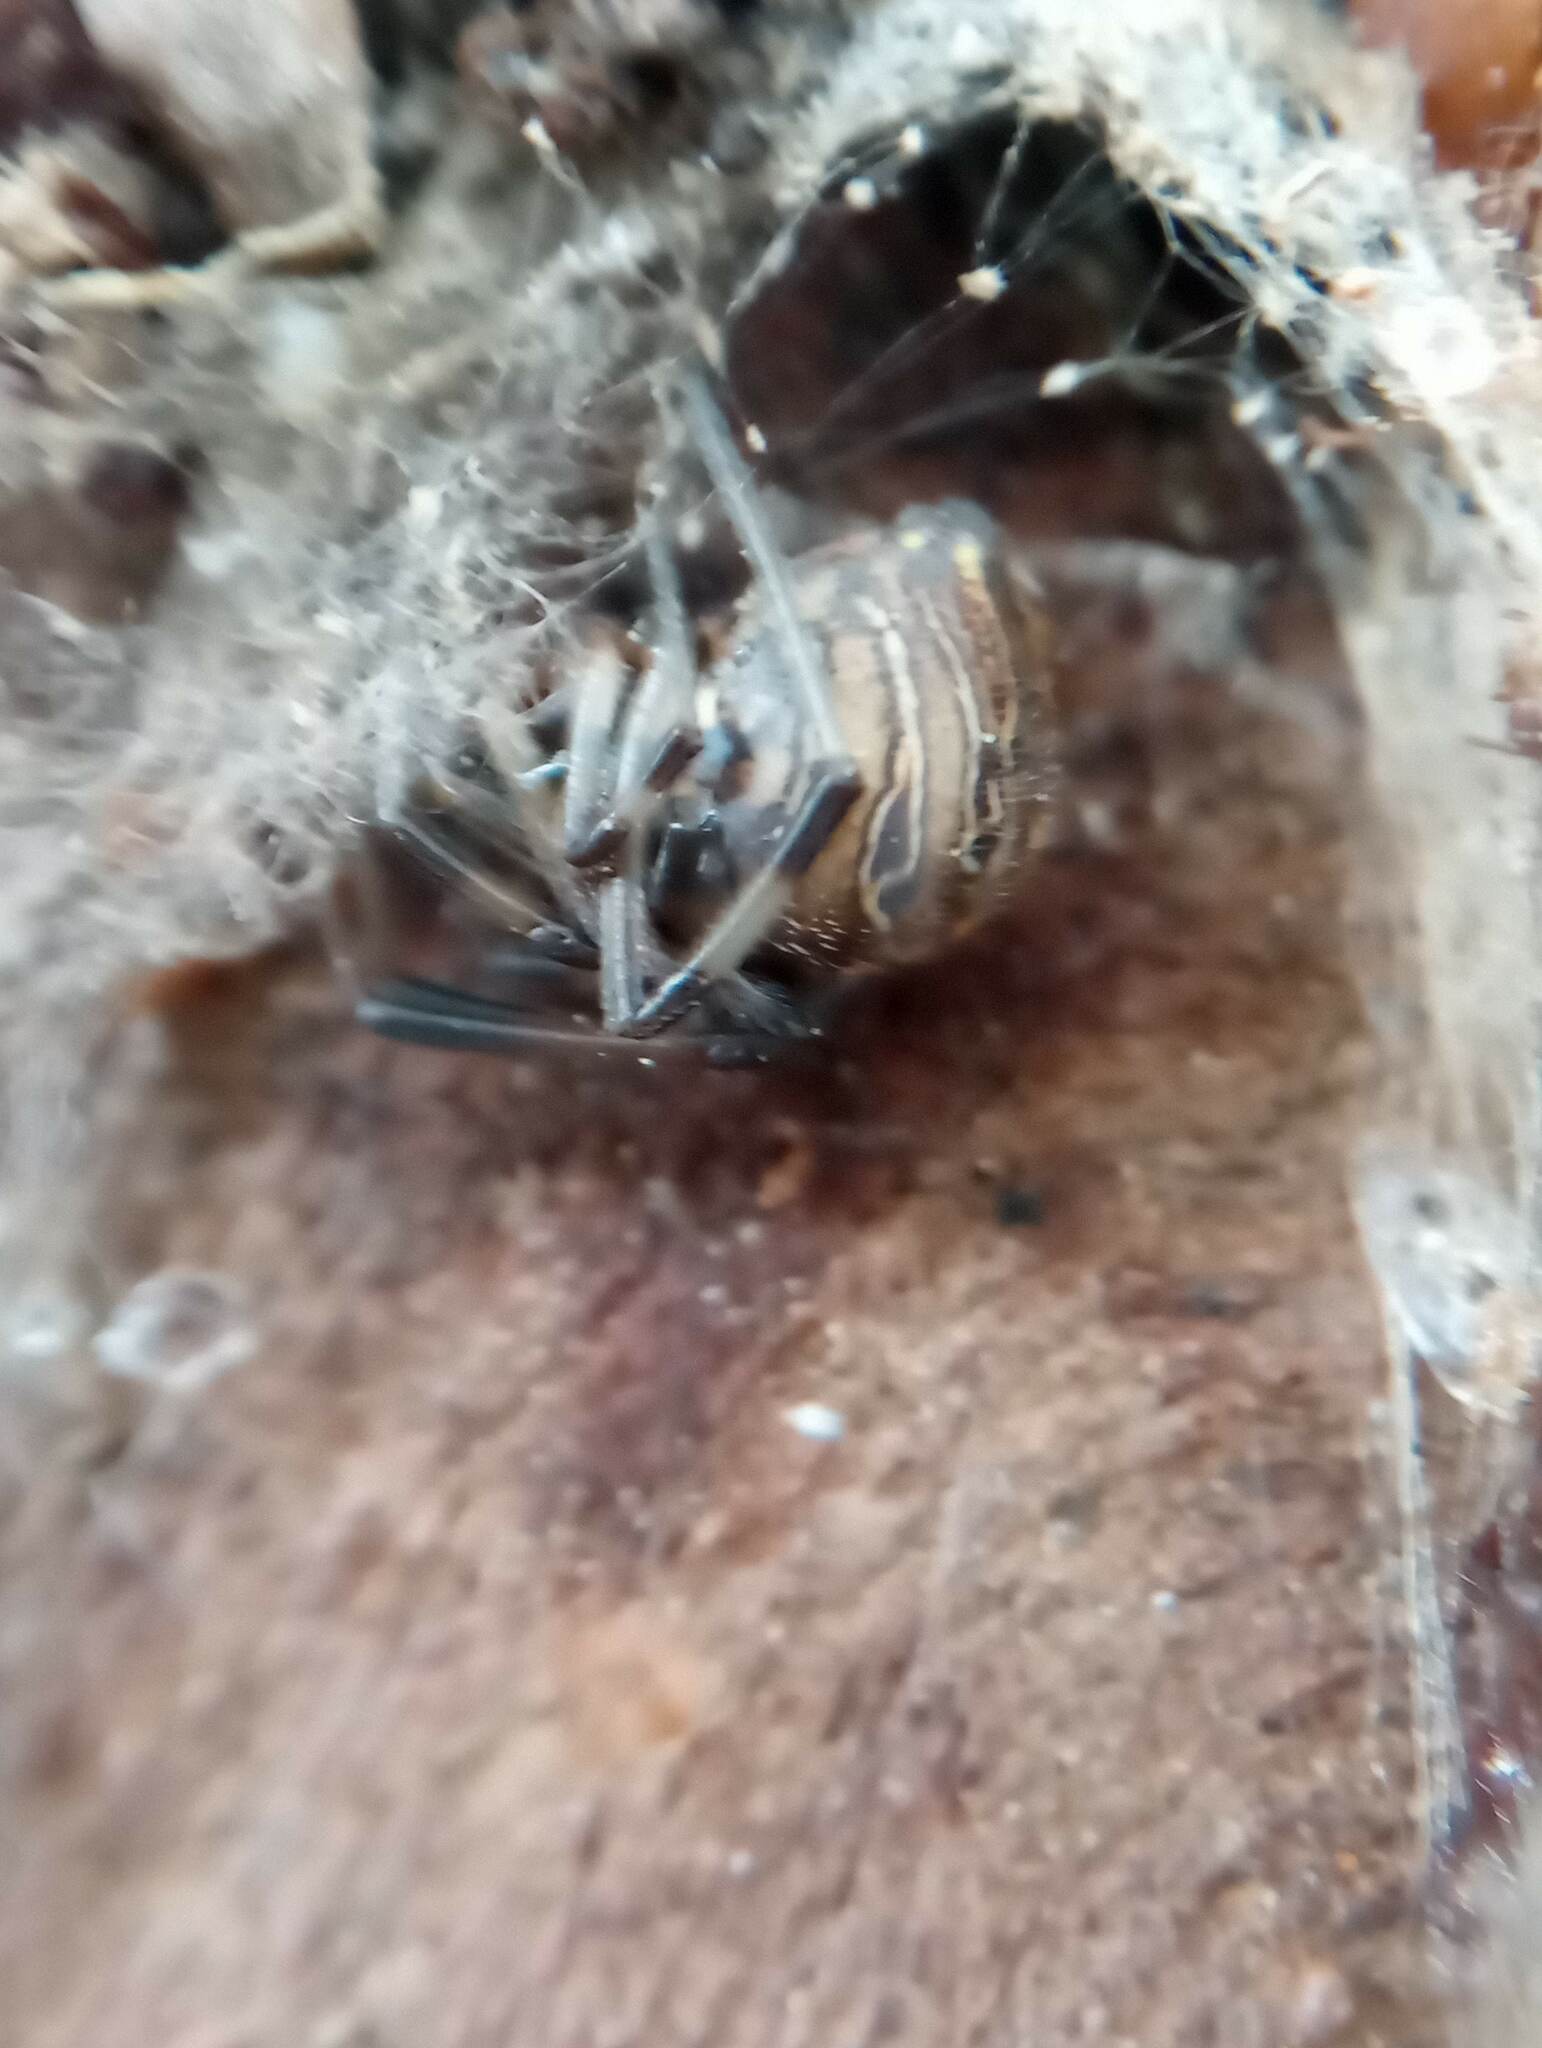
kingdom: Animalia
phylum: Arthropoda
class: Arachnida
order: Araneae
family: Theridiidae
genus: Latrodectus
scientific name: Latrodectus geometricus
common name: Brown widow spider
